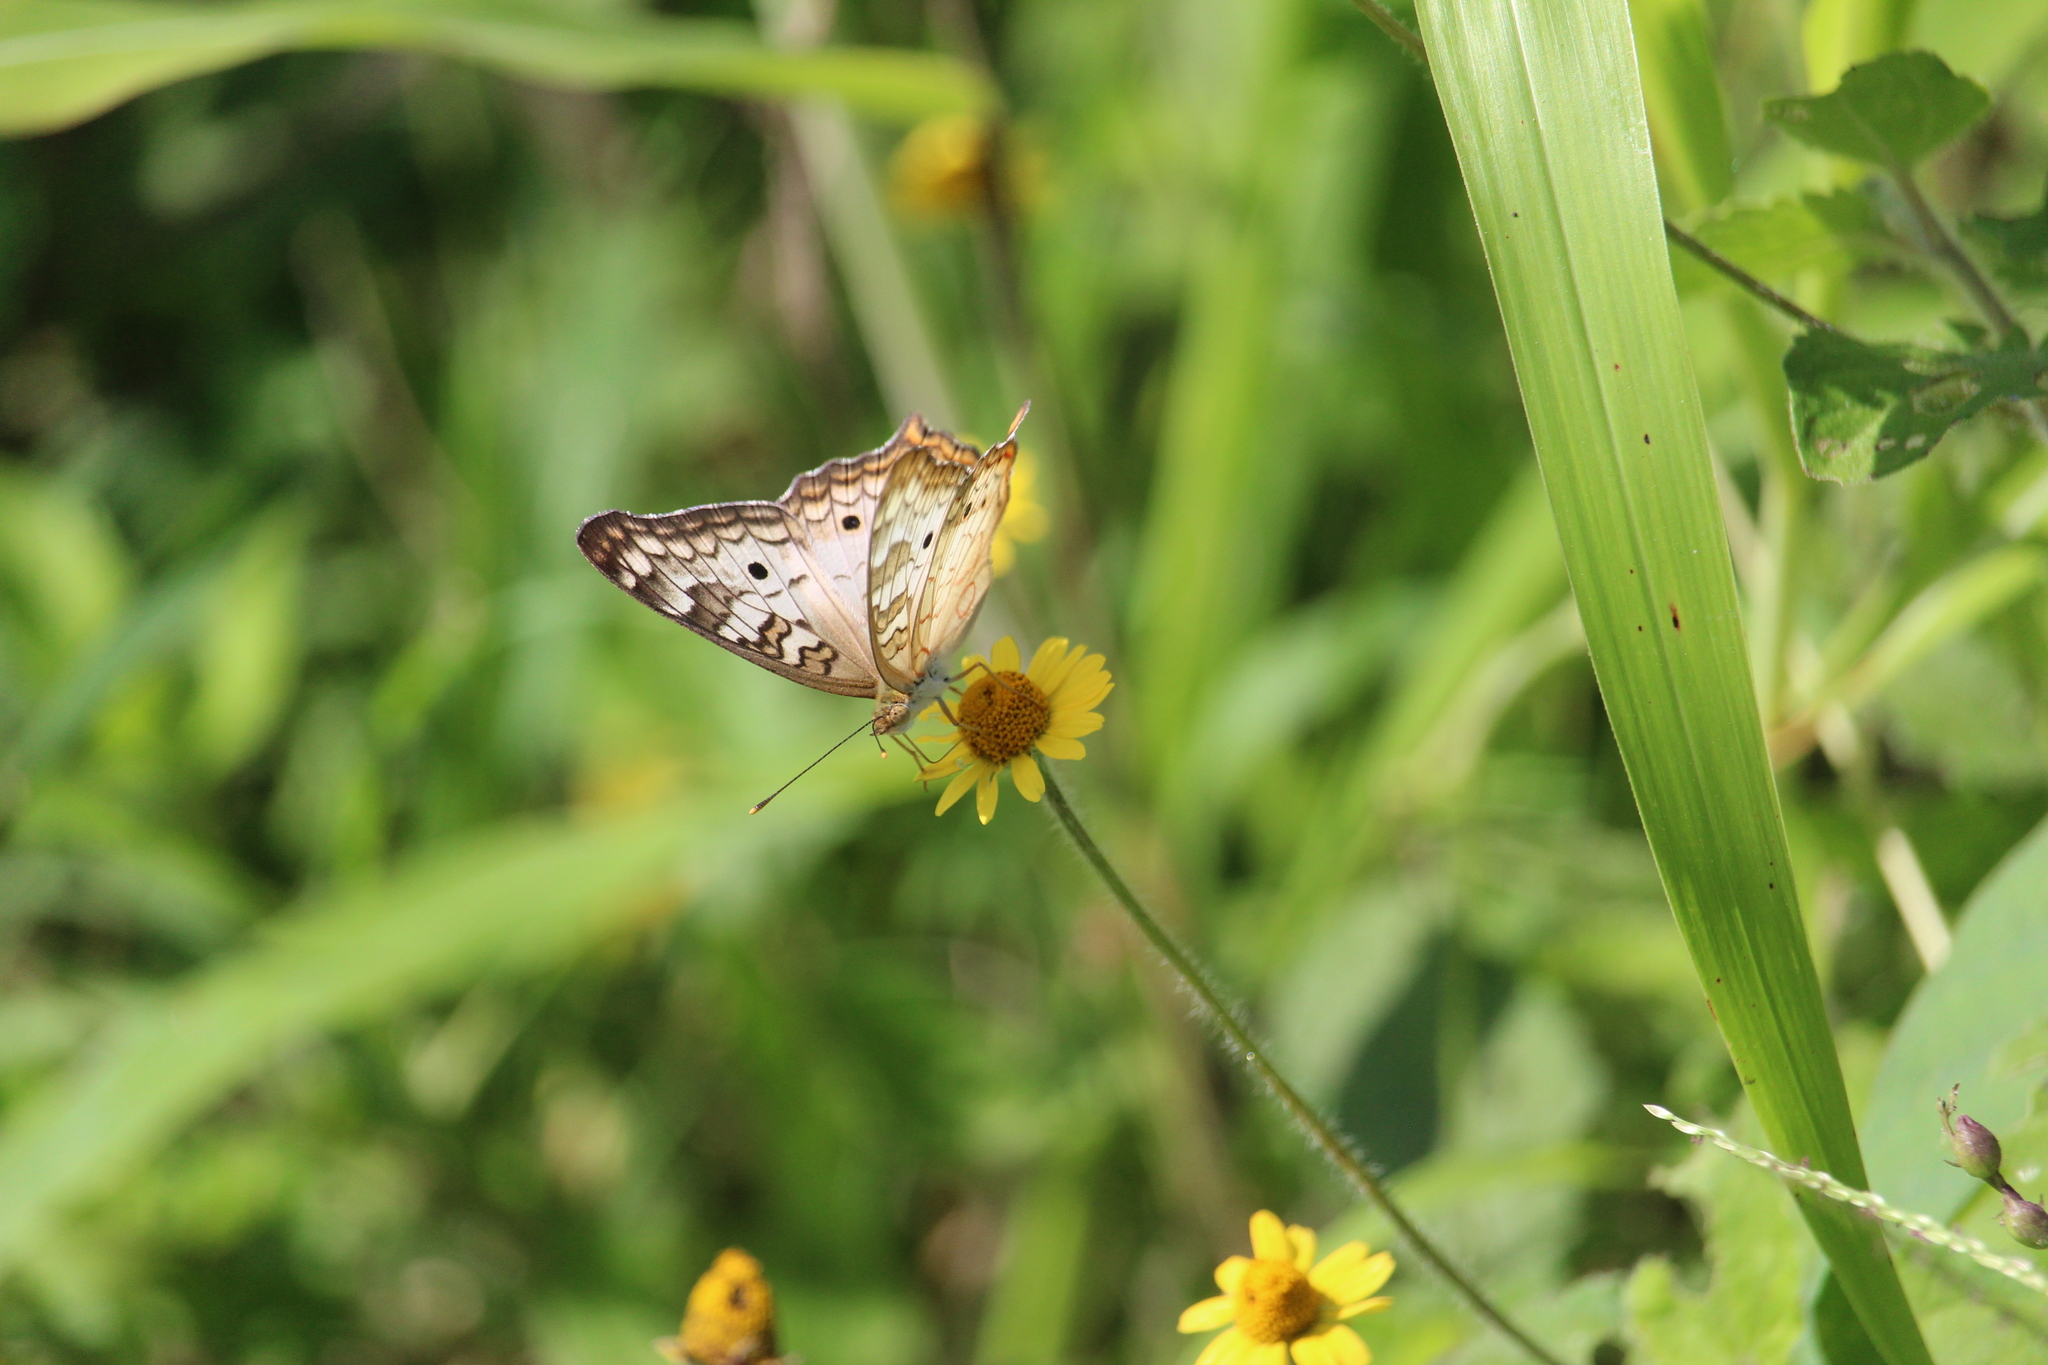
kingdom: Animalia
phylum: Arthropoda
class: Insecta
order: Lepidoptera
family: Nymphalidae
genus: Anartia
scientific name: Anartia jatrophae
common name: White peacock
